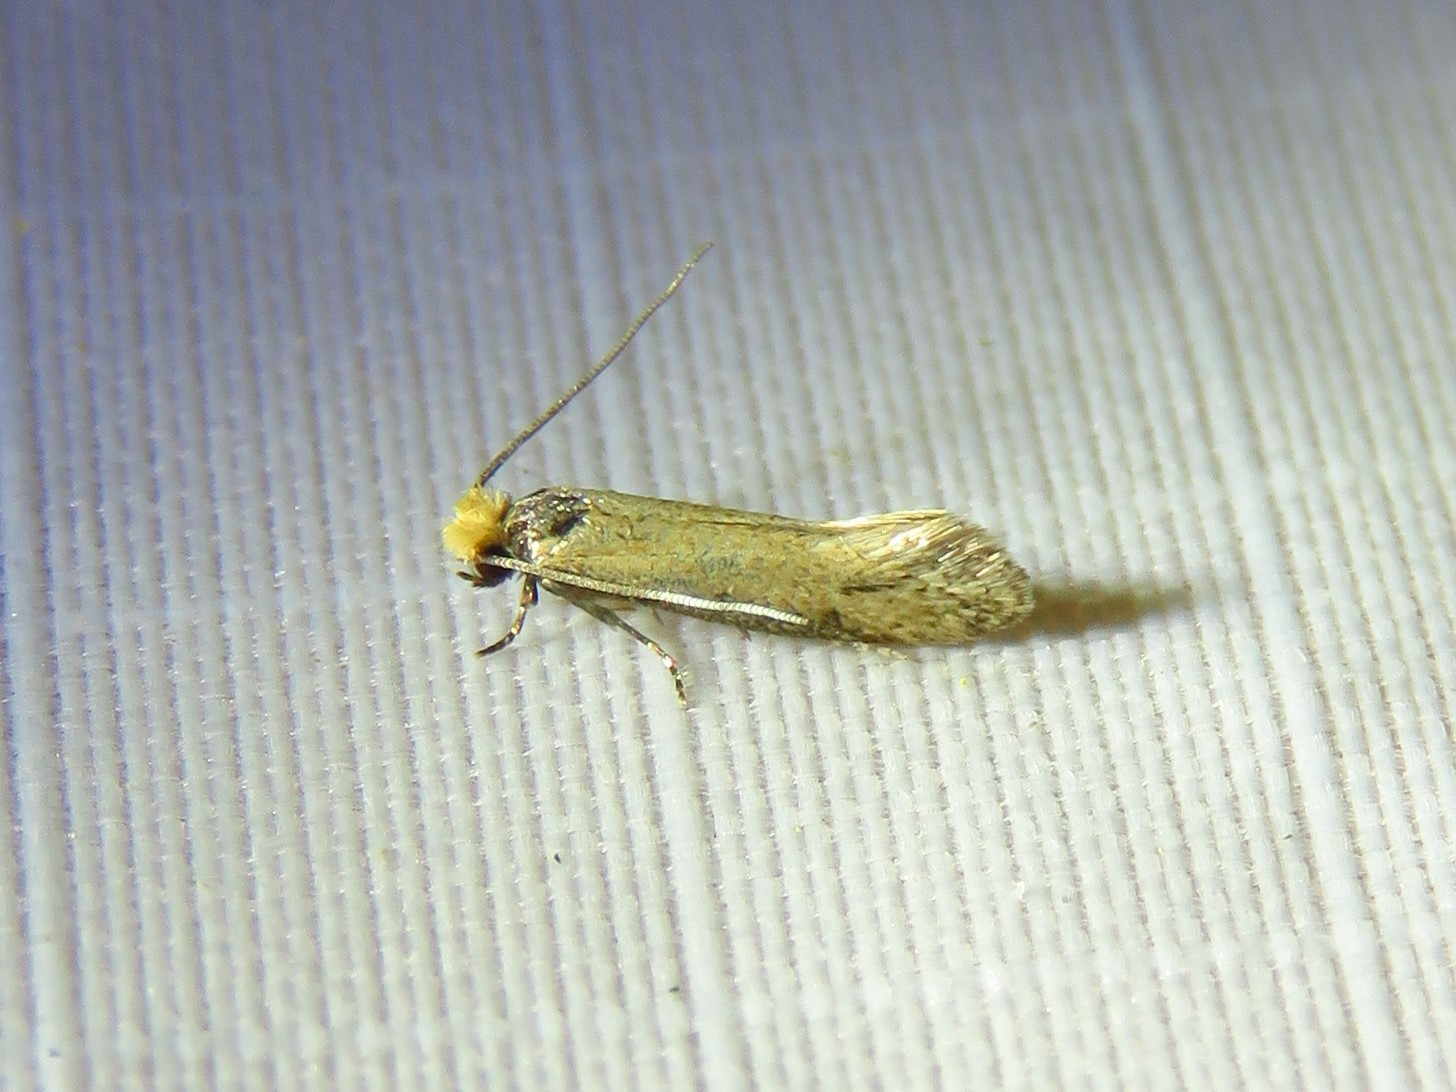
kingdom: Animalia
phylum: Arthropoda
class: Insecta
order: Lepidoptera
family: Meessiidae
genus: Homostinea
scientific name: Homostinea curviliniella
